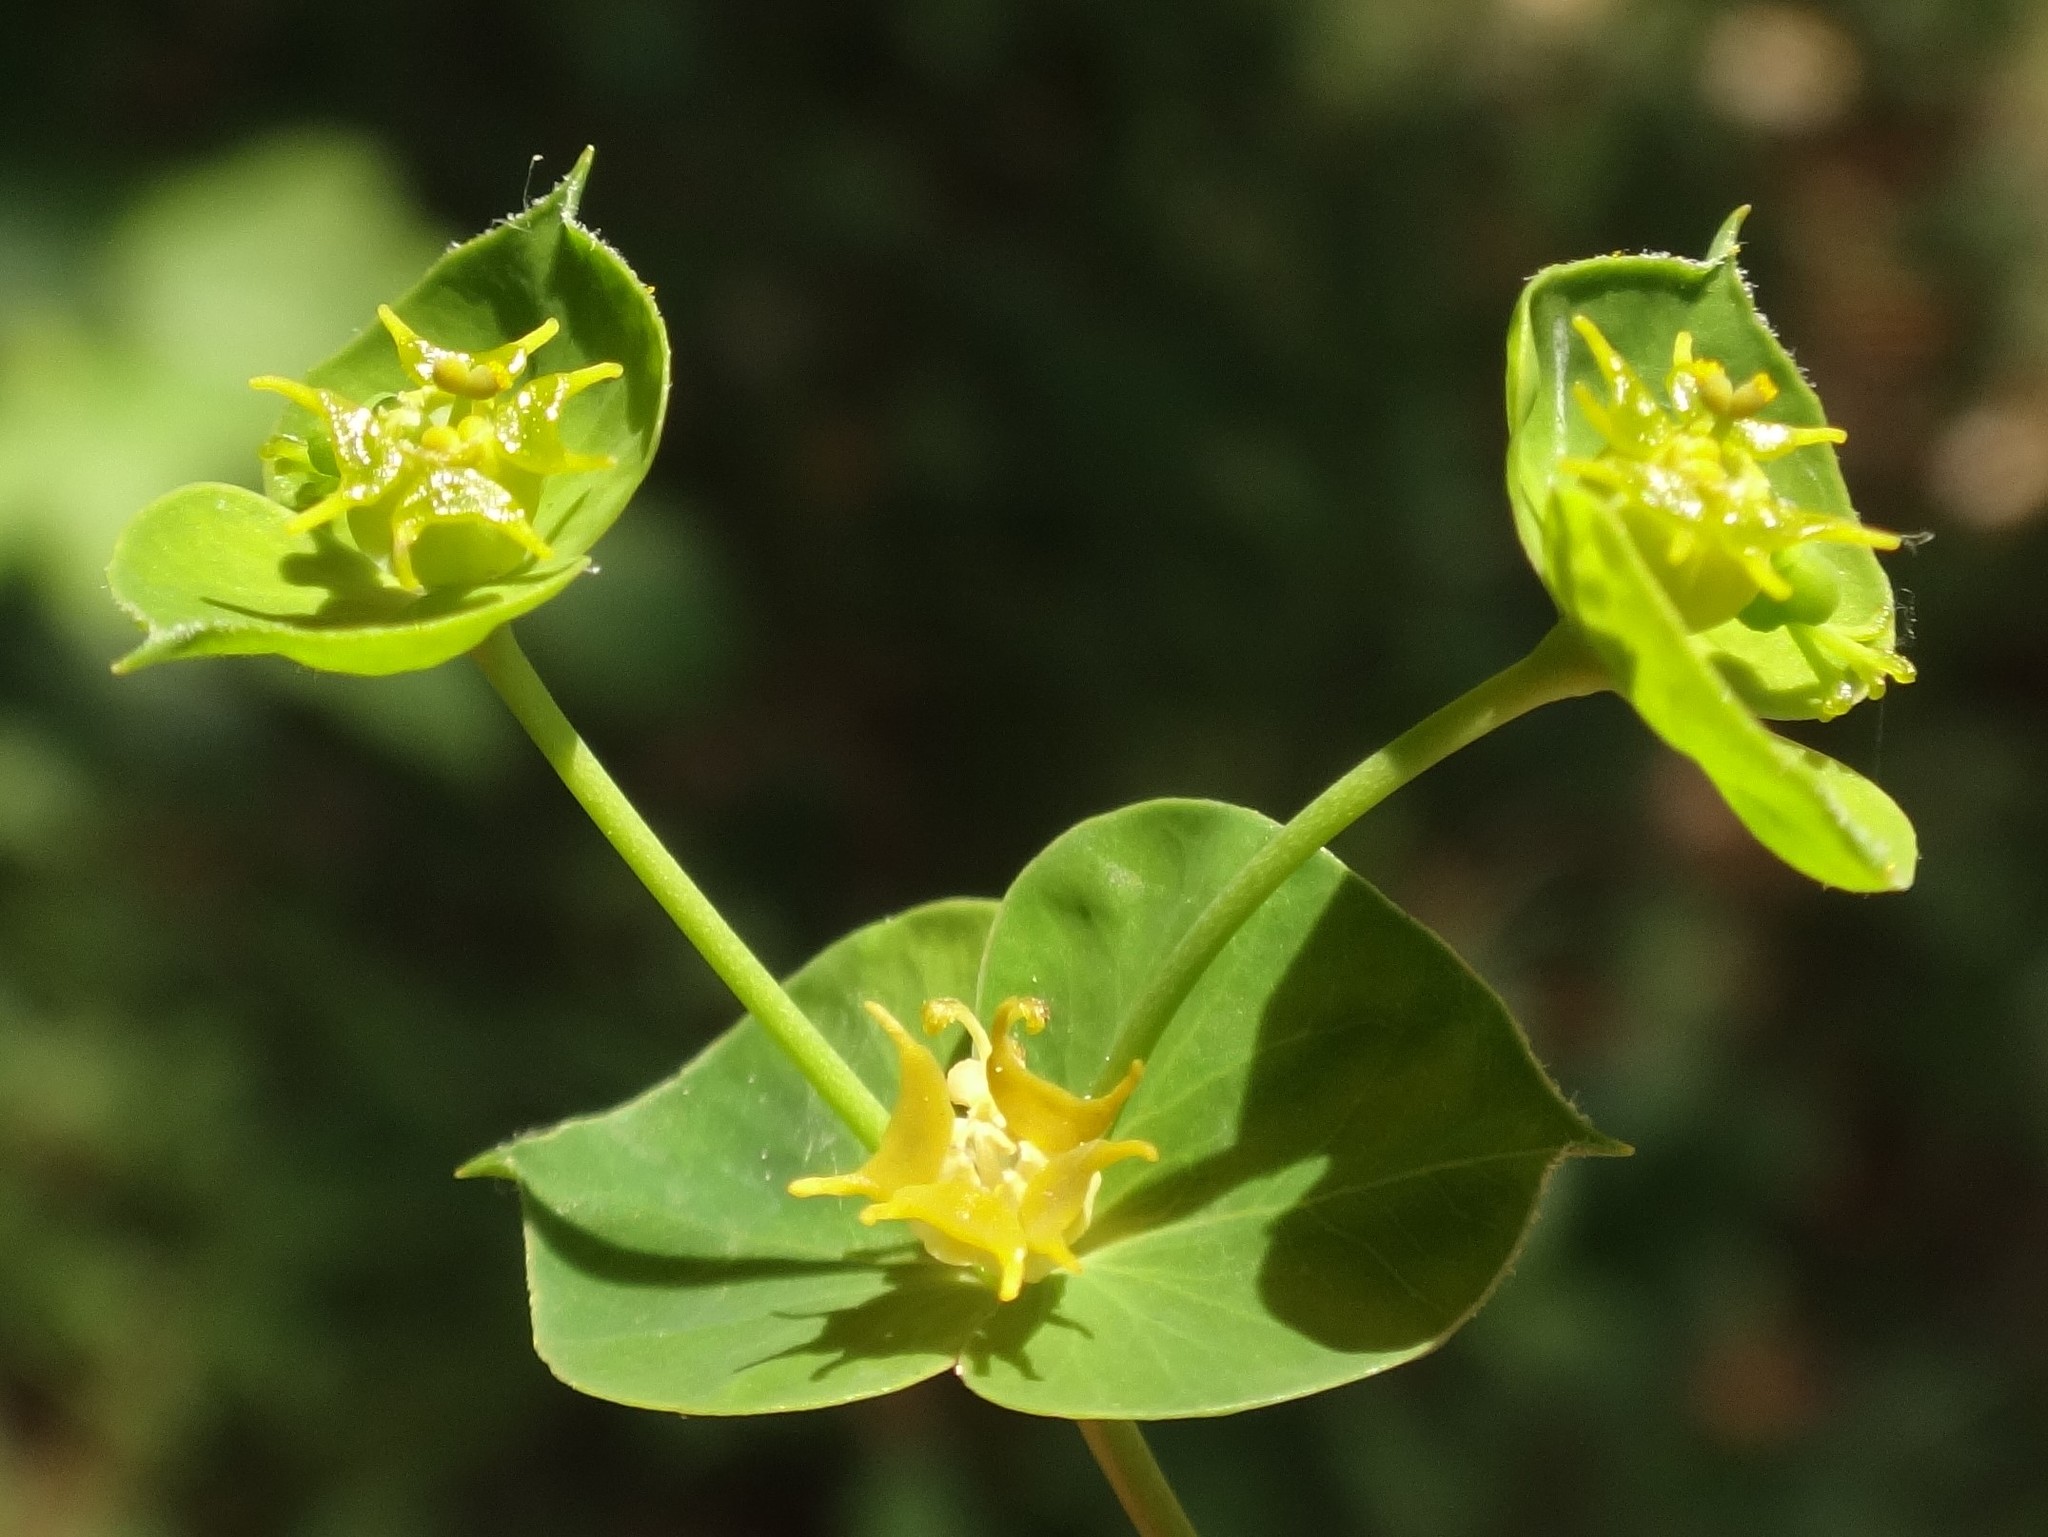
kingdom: Plantae
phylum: Tracheophyta
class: Magnoliopsida
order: Malpighiales
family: Euphorbiaceae
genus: Euphorbia
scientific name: Euphorbia virgata
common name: Leafy spurge
